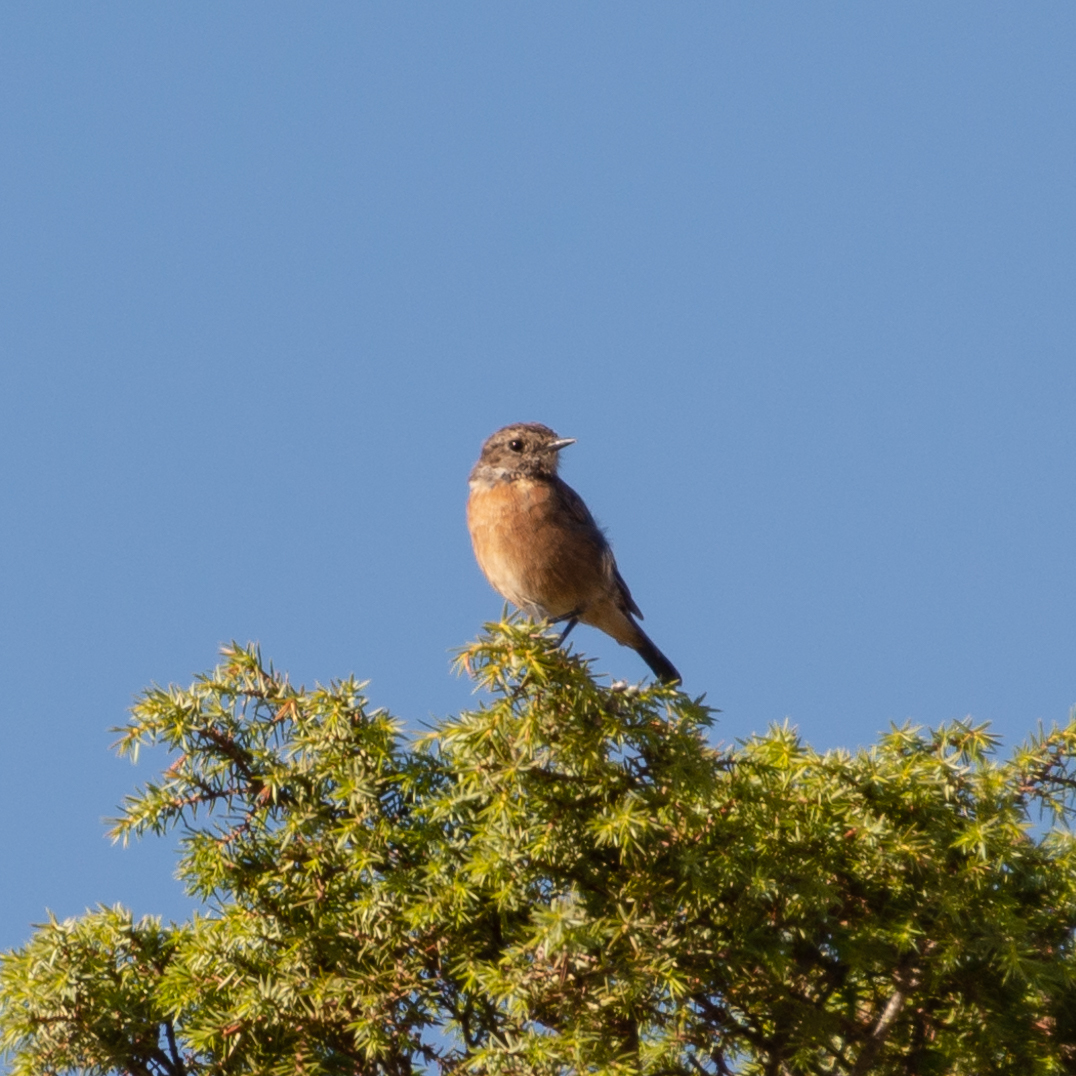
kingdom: Animalia
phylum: Chordata
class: Aves
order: Passeriformes
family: Muscicapidae
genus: Saxicola
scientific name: Saxicola rubicola
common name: European stonechat
